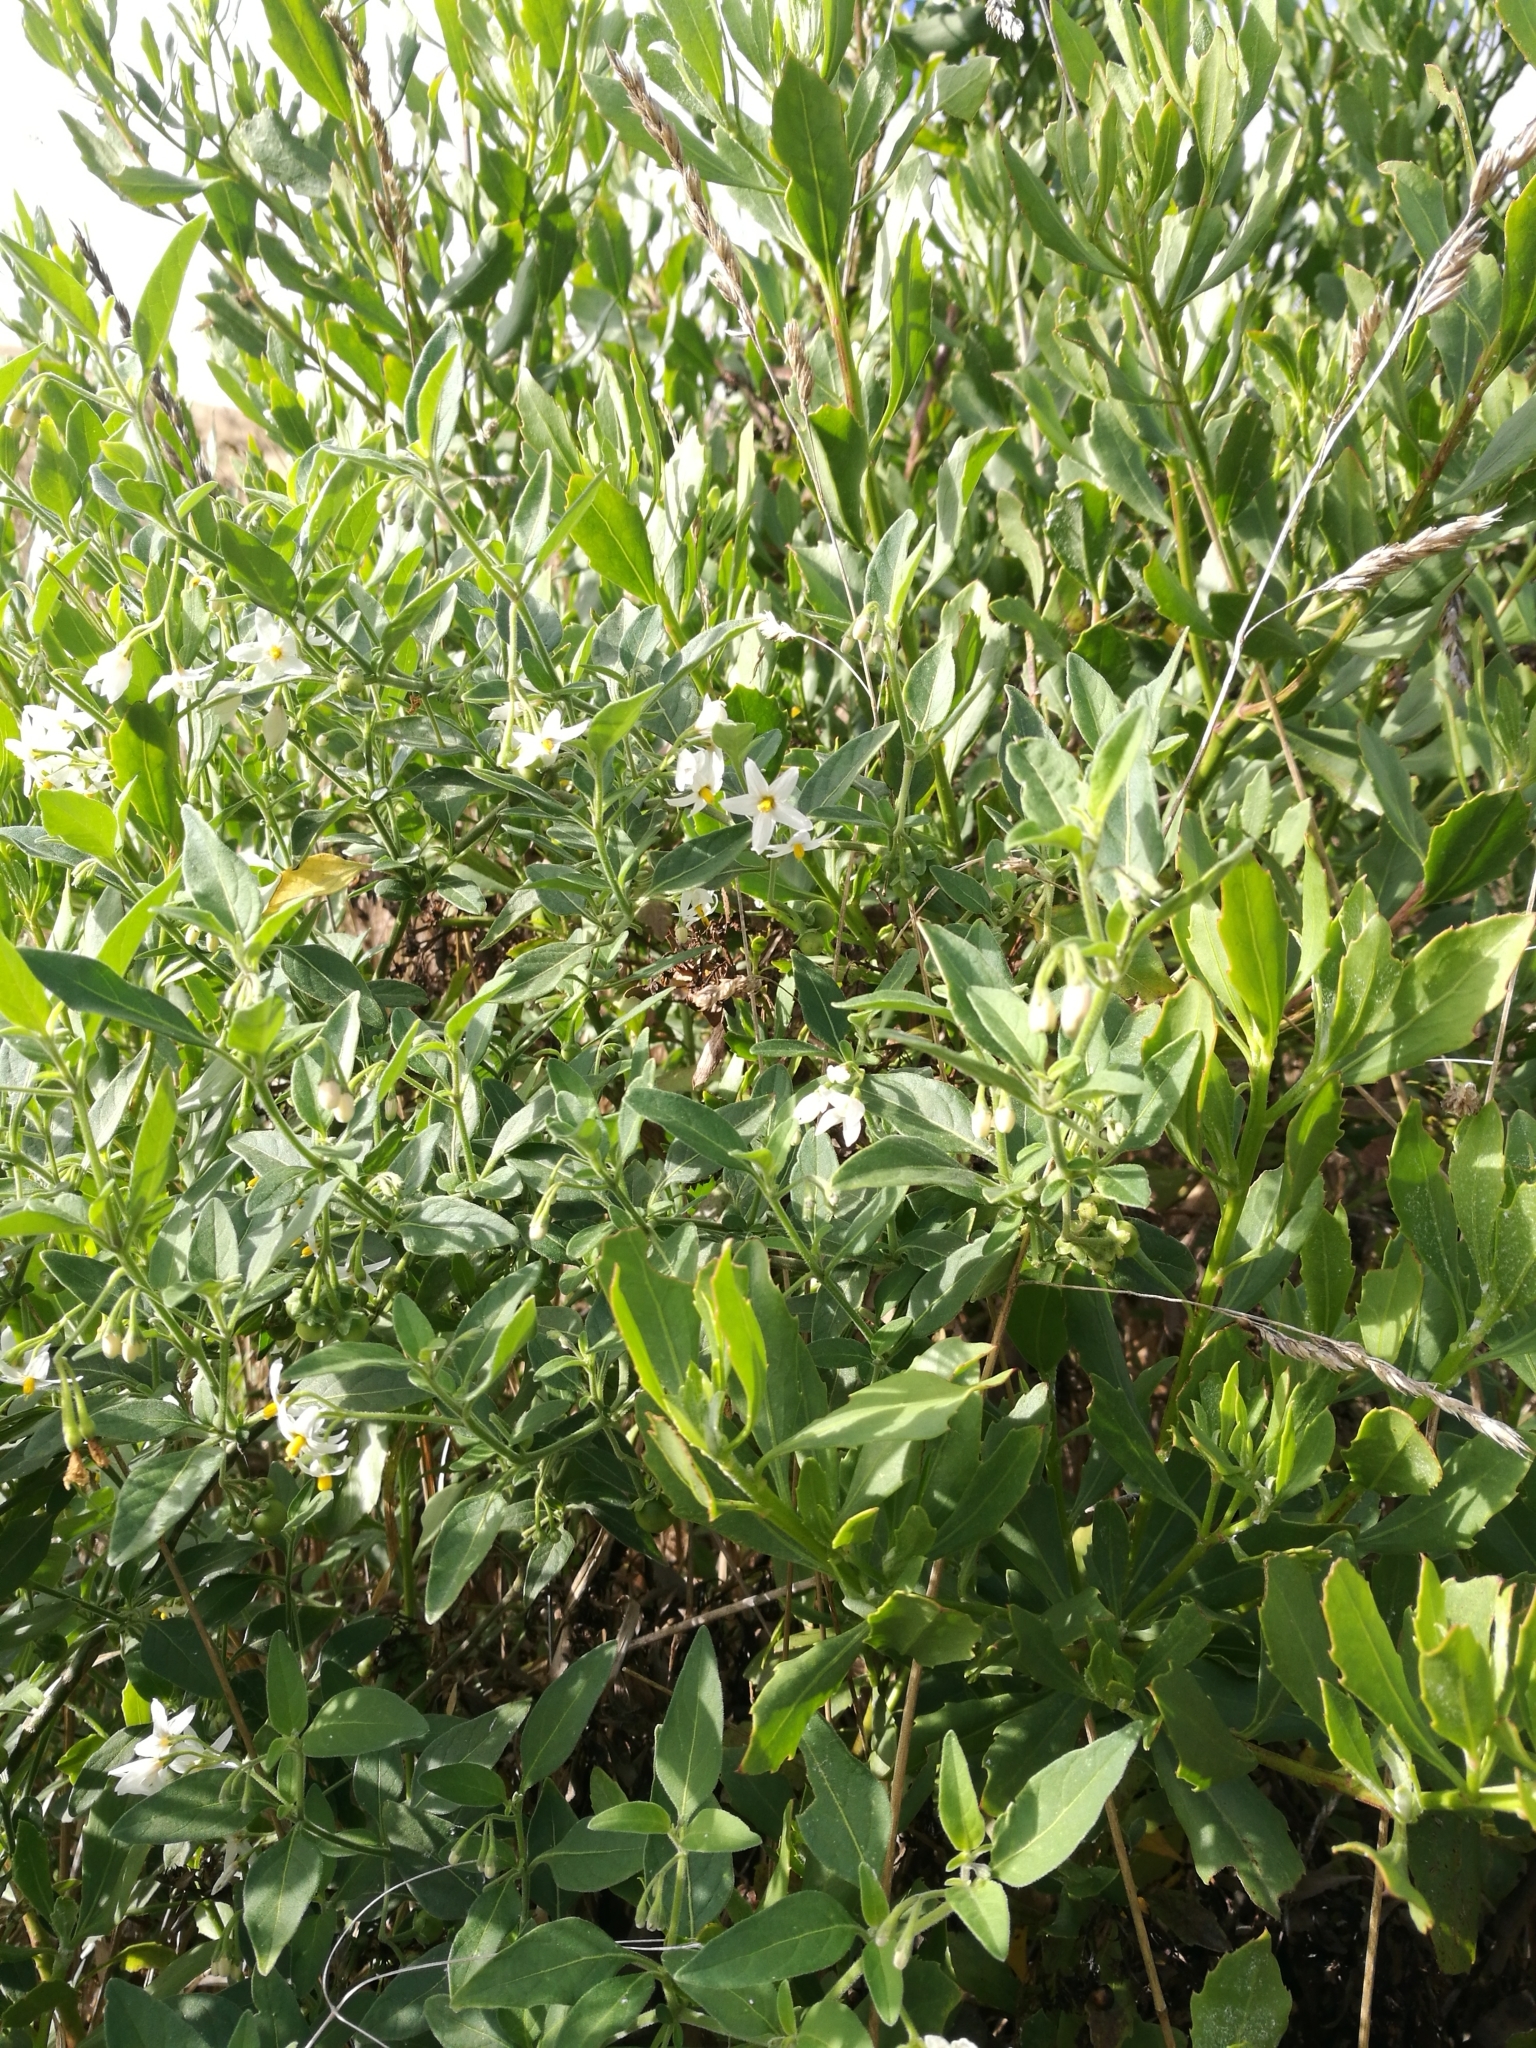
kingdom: Plantae
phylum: Tracheophyta
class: Magnoliopsida
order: Solanales
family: Solanaceae
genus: Solanum
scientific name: Solanum chenopodioides
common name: Tall nightshade
